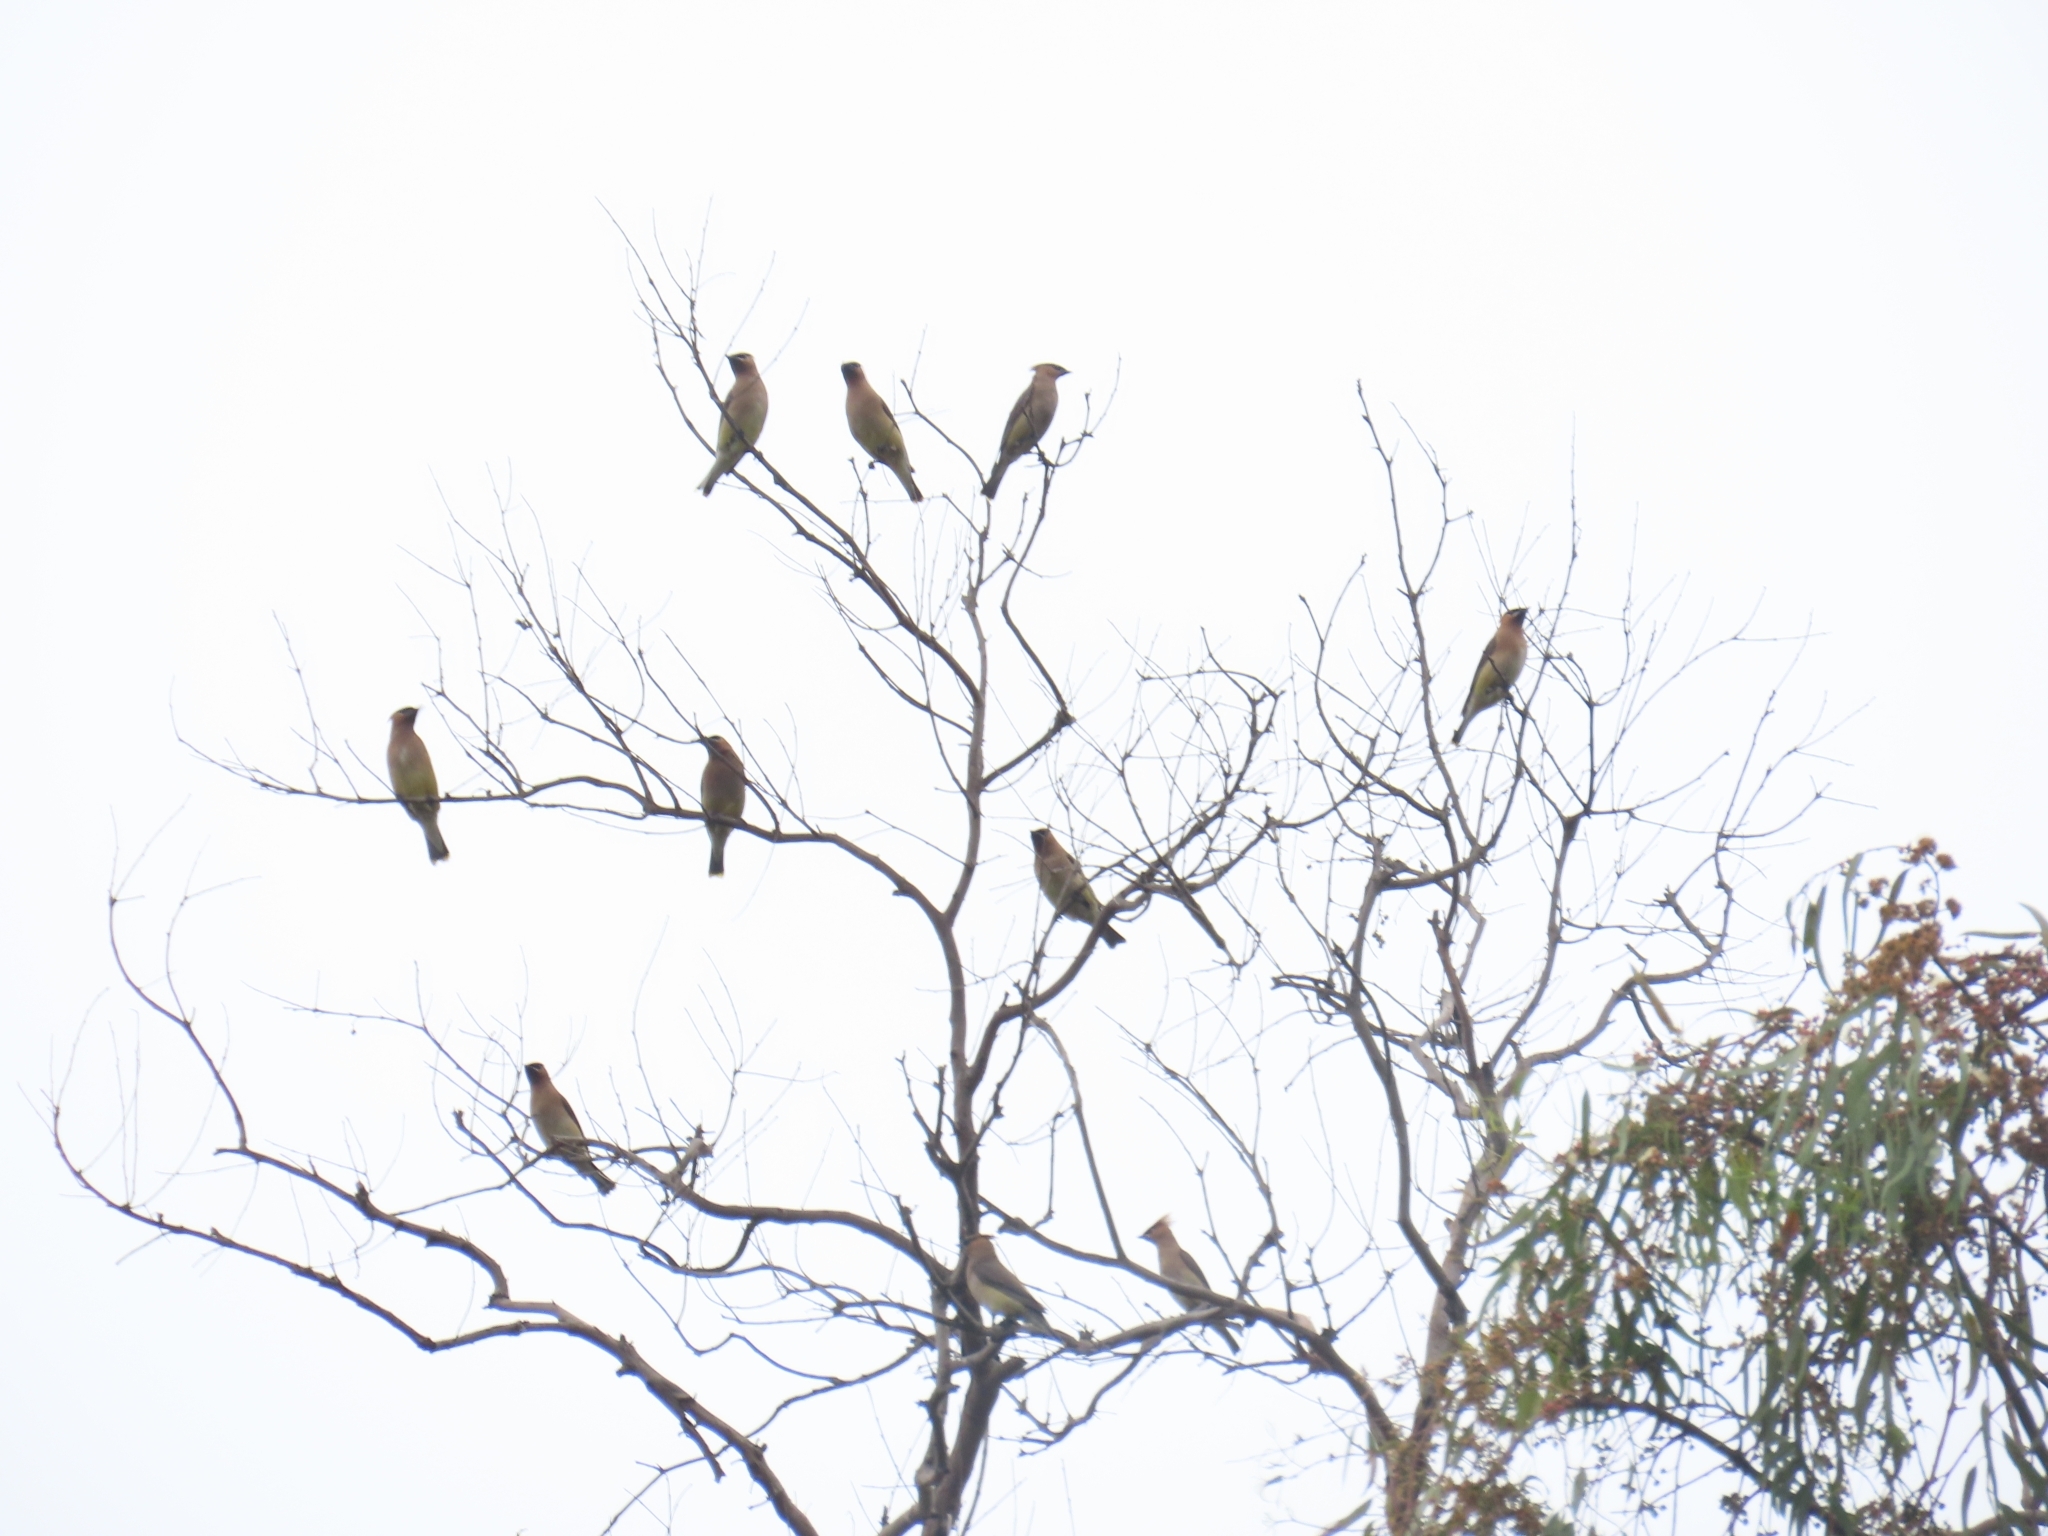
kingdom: Animalia
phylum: Chordata
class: Aves
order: Passeriformes
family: Bombycillidae
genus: Bombycilla
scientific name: Bombycilla cedrorum
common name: Cedar waxwing
